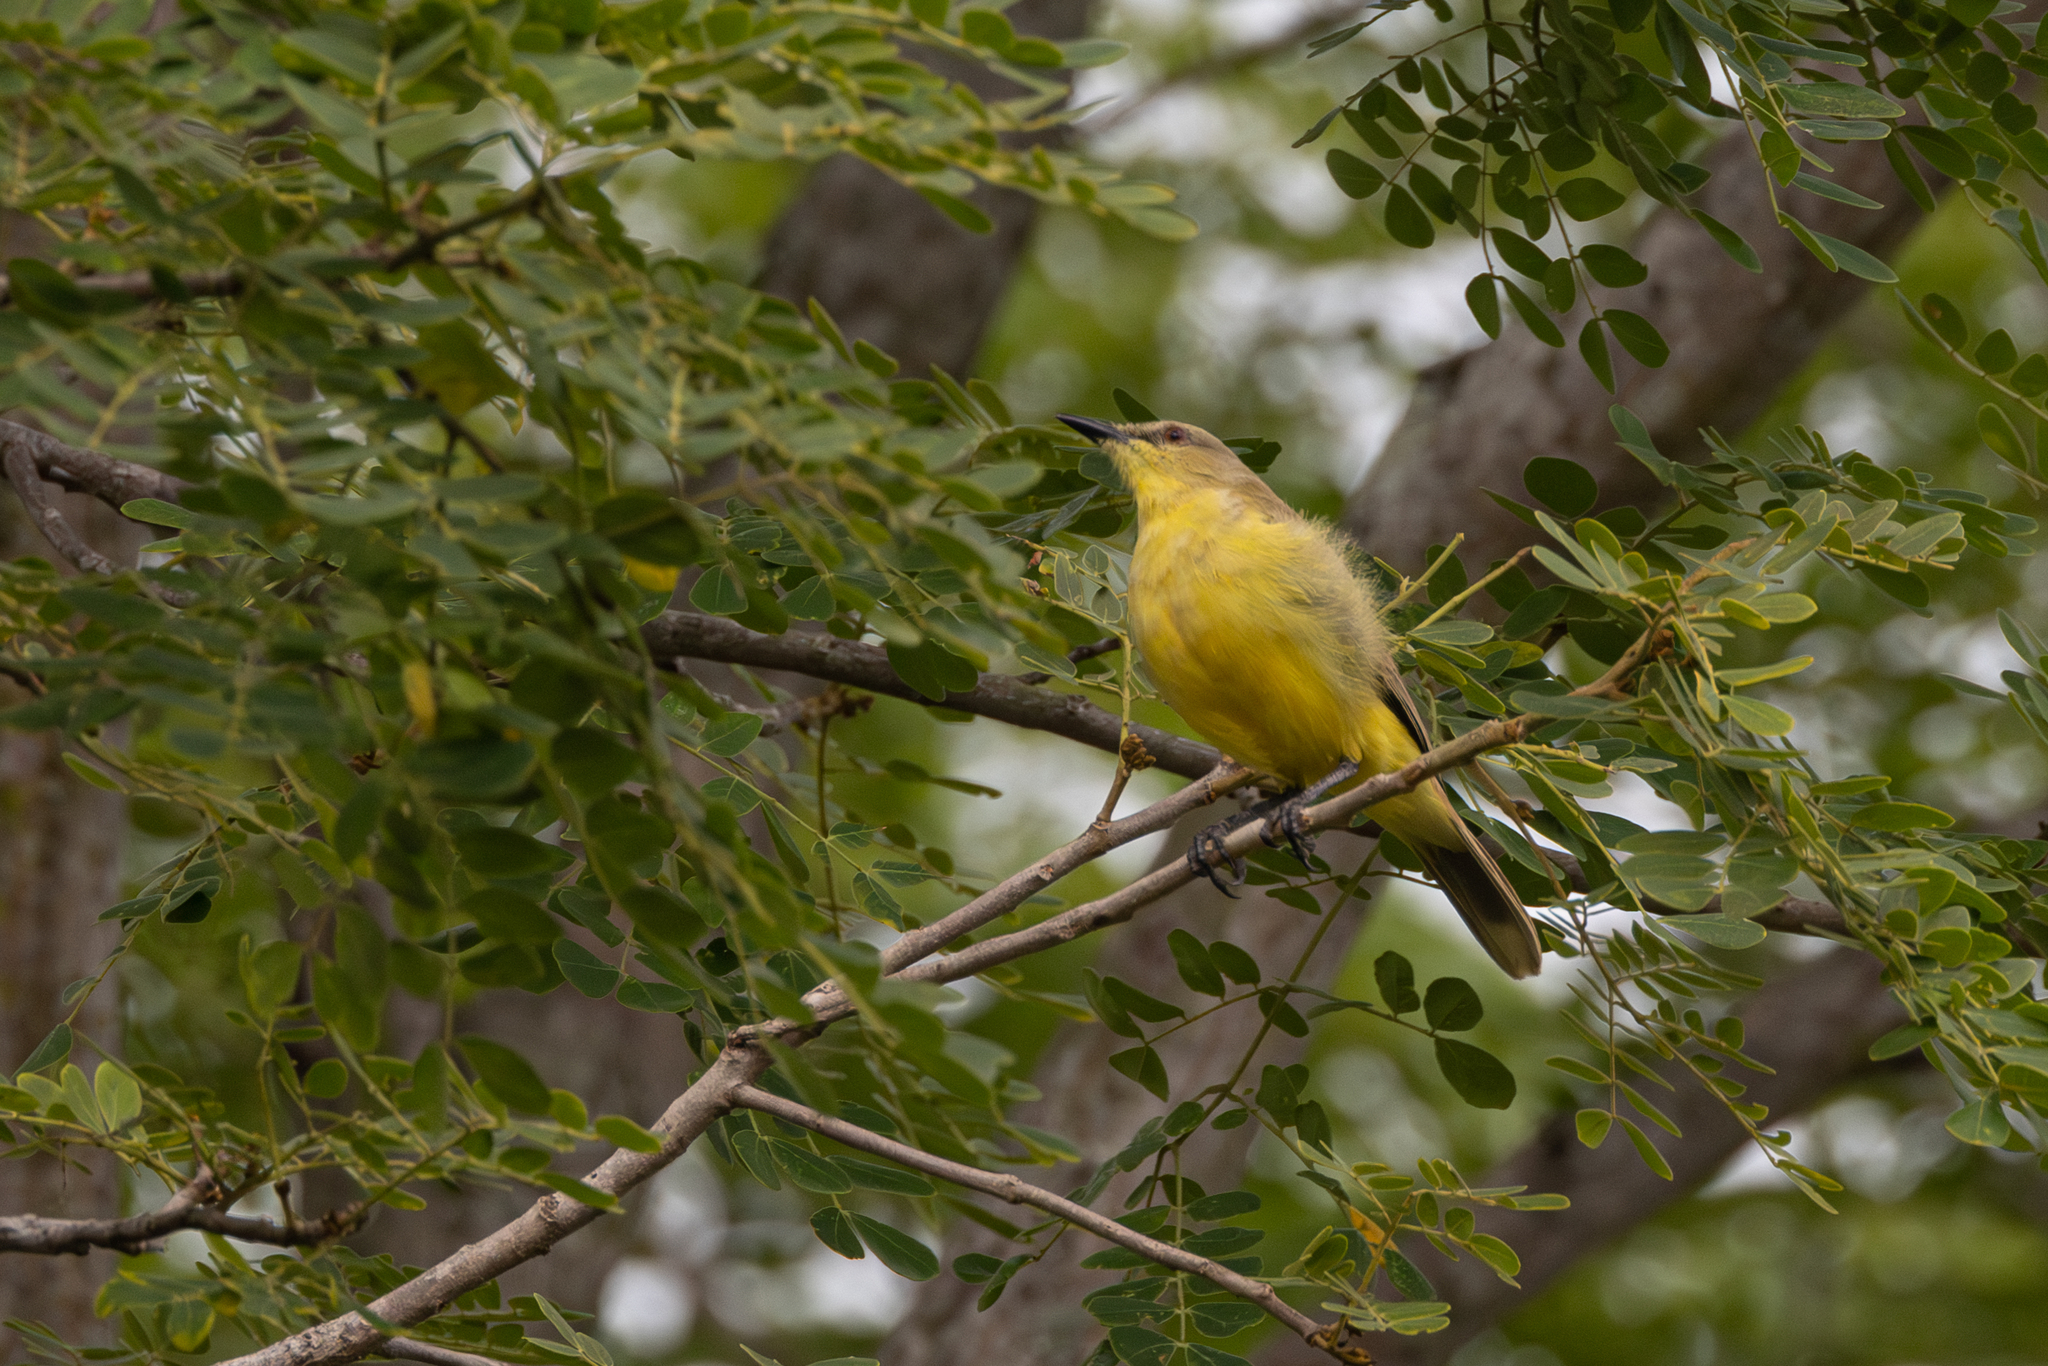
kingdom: Animalia
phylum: Chordata
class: Aves
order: Passeriformes
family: Tyrannidae
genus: Machetornis
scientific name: Machetornis rixosa
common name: Cattle tyrant
